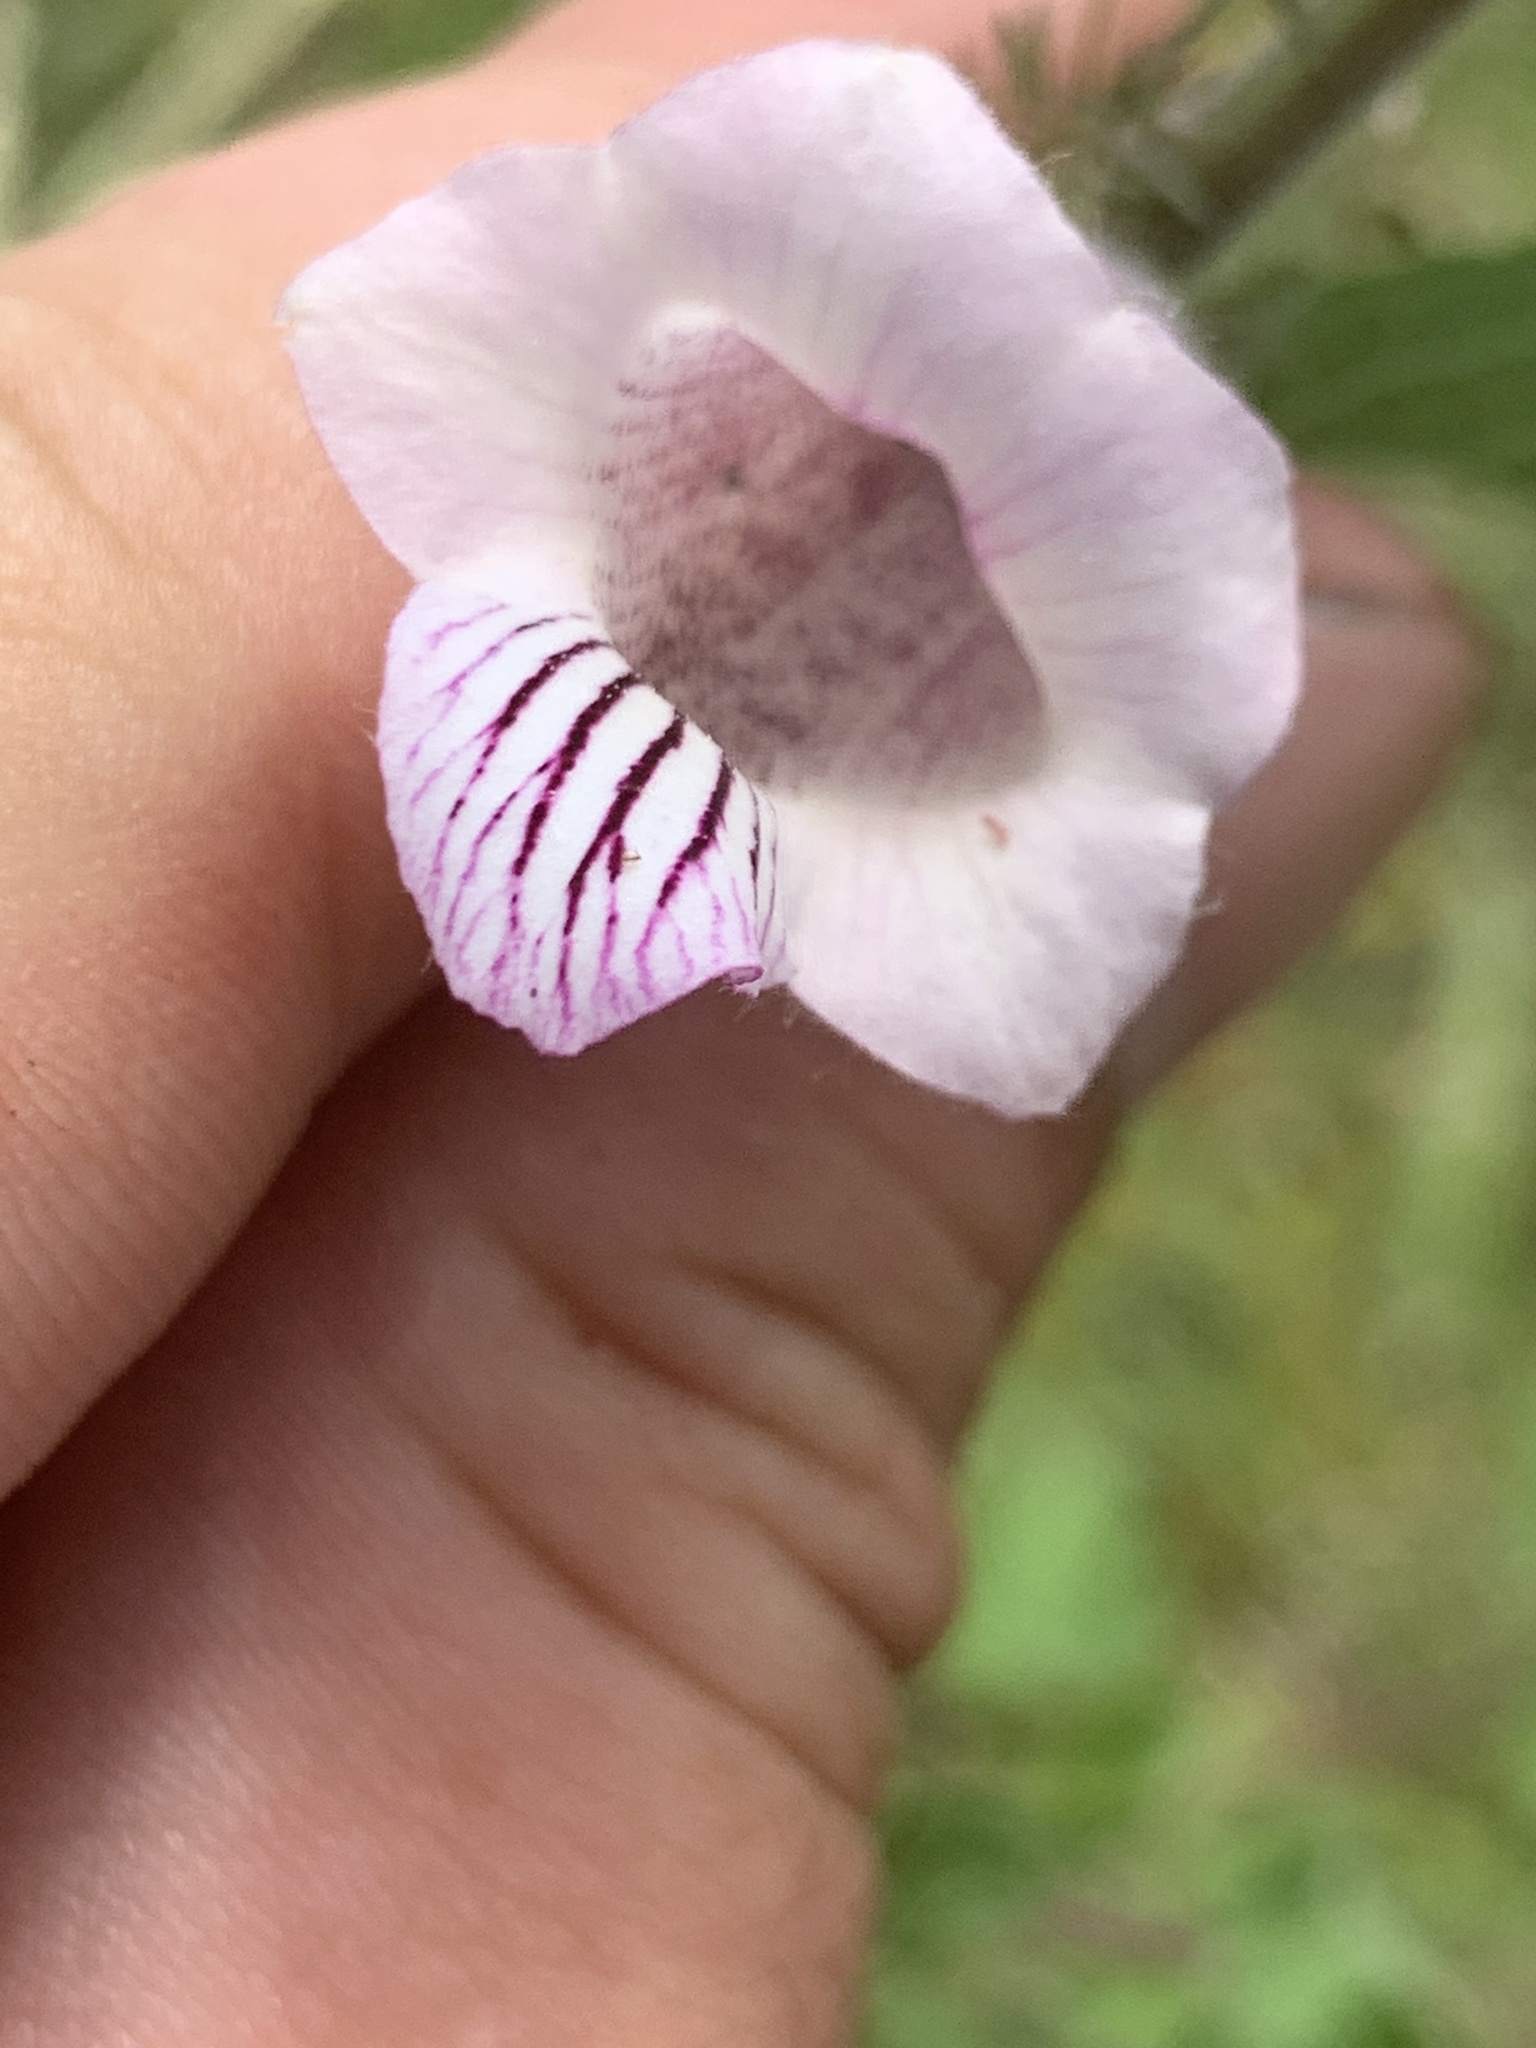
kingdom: Plantae
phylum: Tracheophyta
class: Magnoliopsida
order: Lamiales
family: Pedaliaceae
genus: Sesamum
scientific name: Sesamum trilobum
